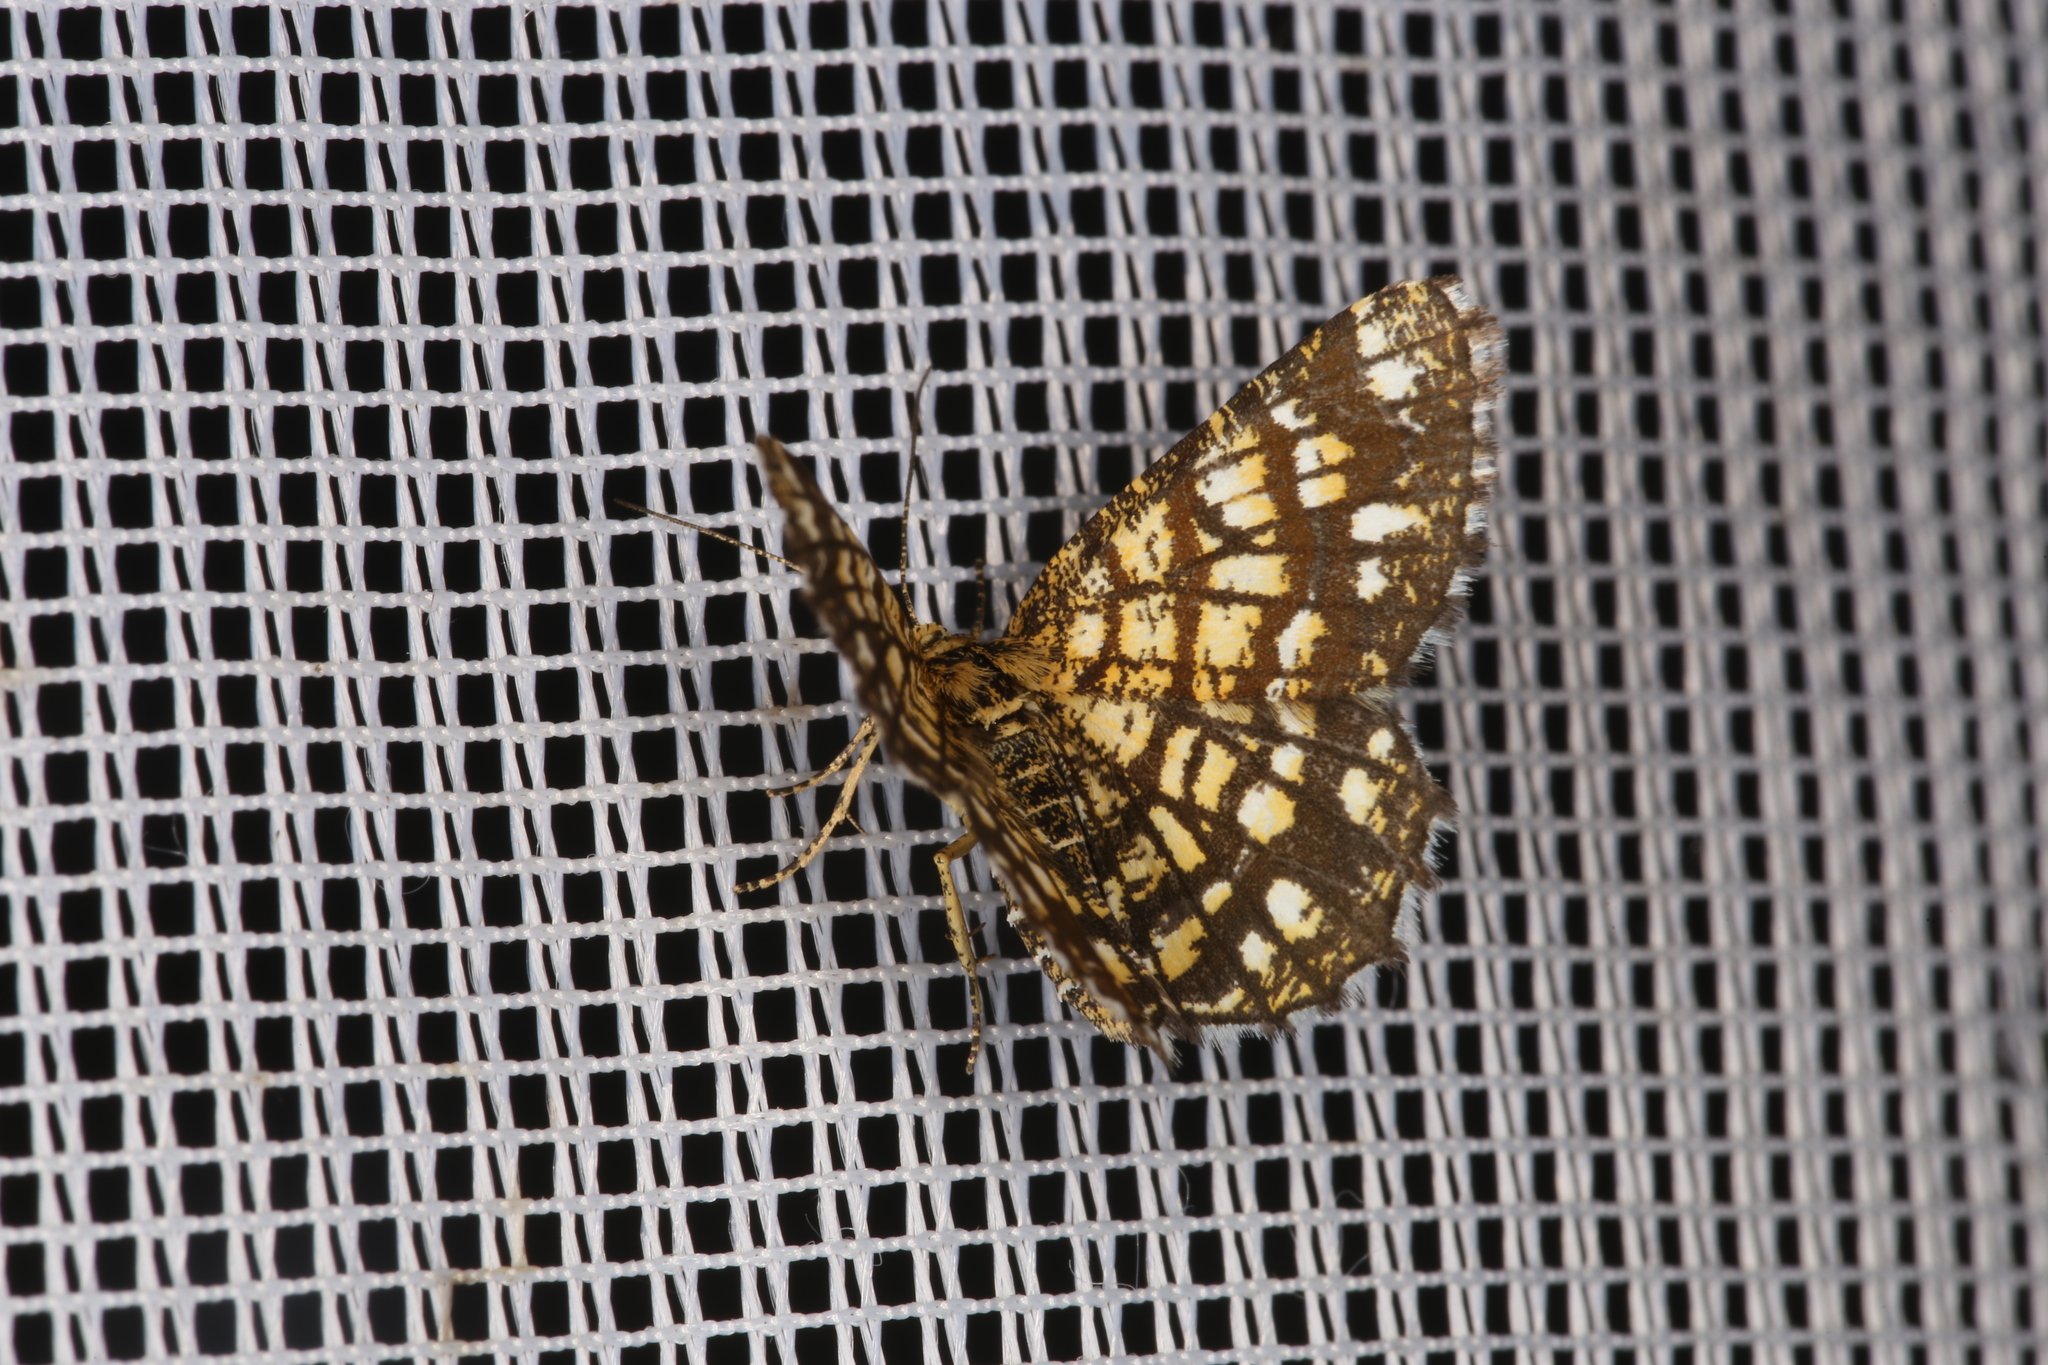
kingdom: Animalia
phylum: Arthropoda
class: Insecta
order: Lepidoptera
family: Geometridae
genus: Chiasmia
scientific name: Chiasmia clathrata
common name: Latticed heath
